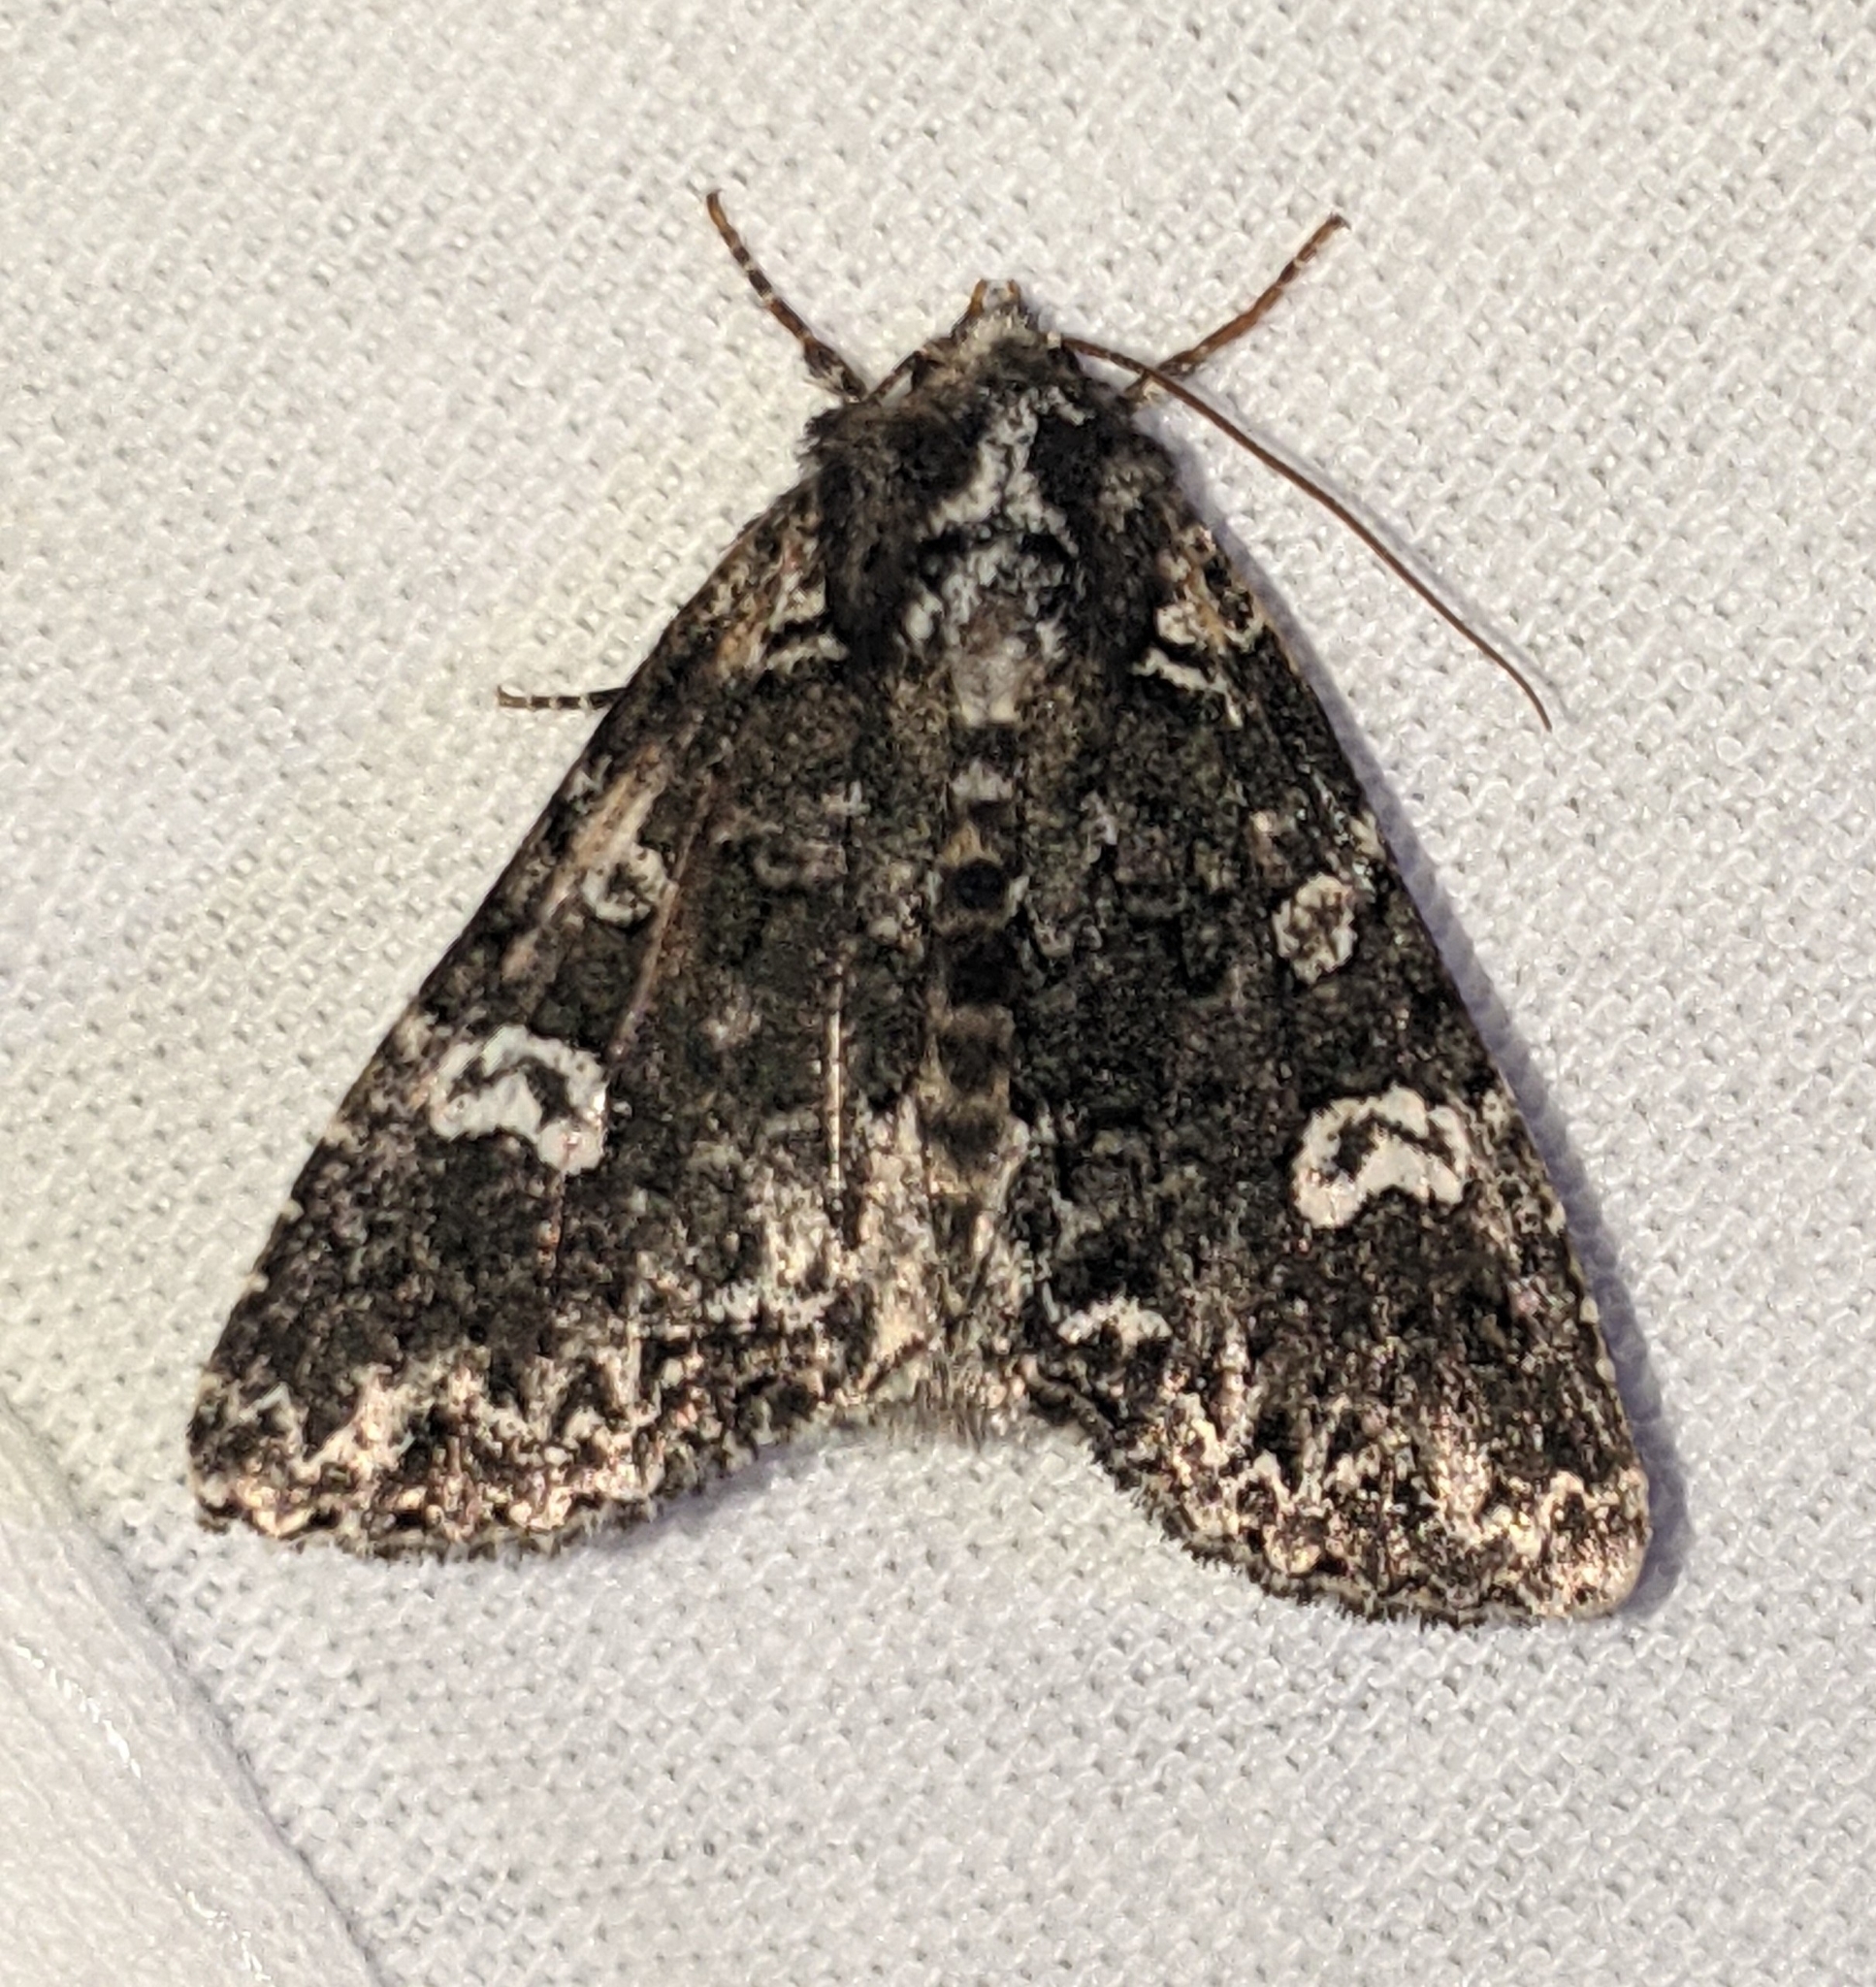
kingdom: Animalia
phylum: Arthropoda
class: Insecta
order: Lepidoptera
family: Noctuidae
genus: Melanchra
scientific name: Melanchra adjuncta
